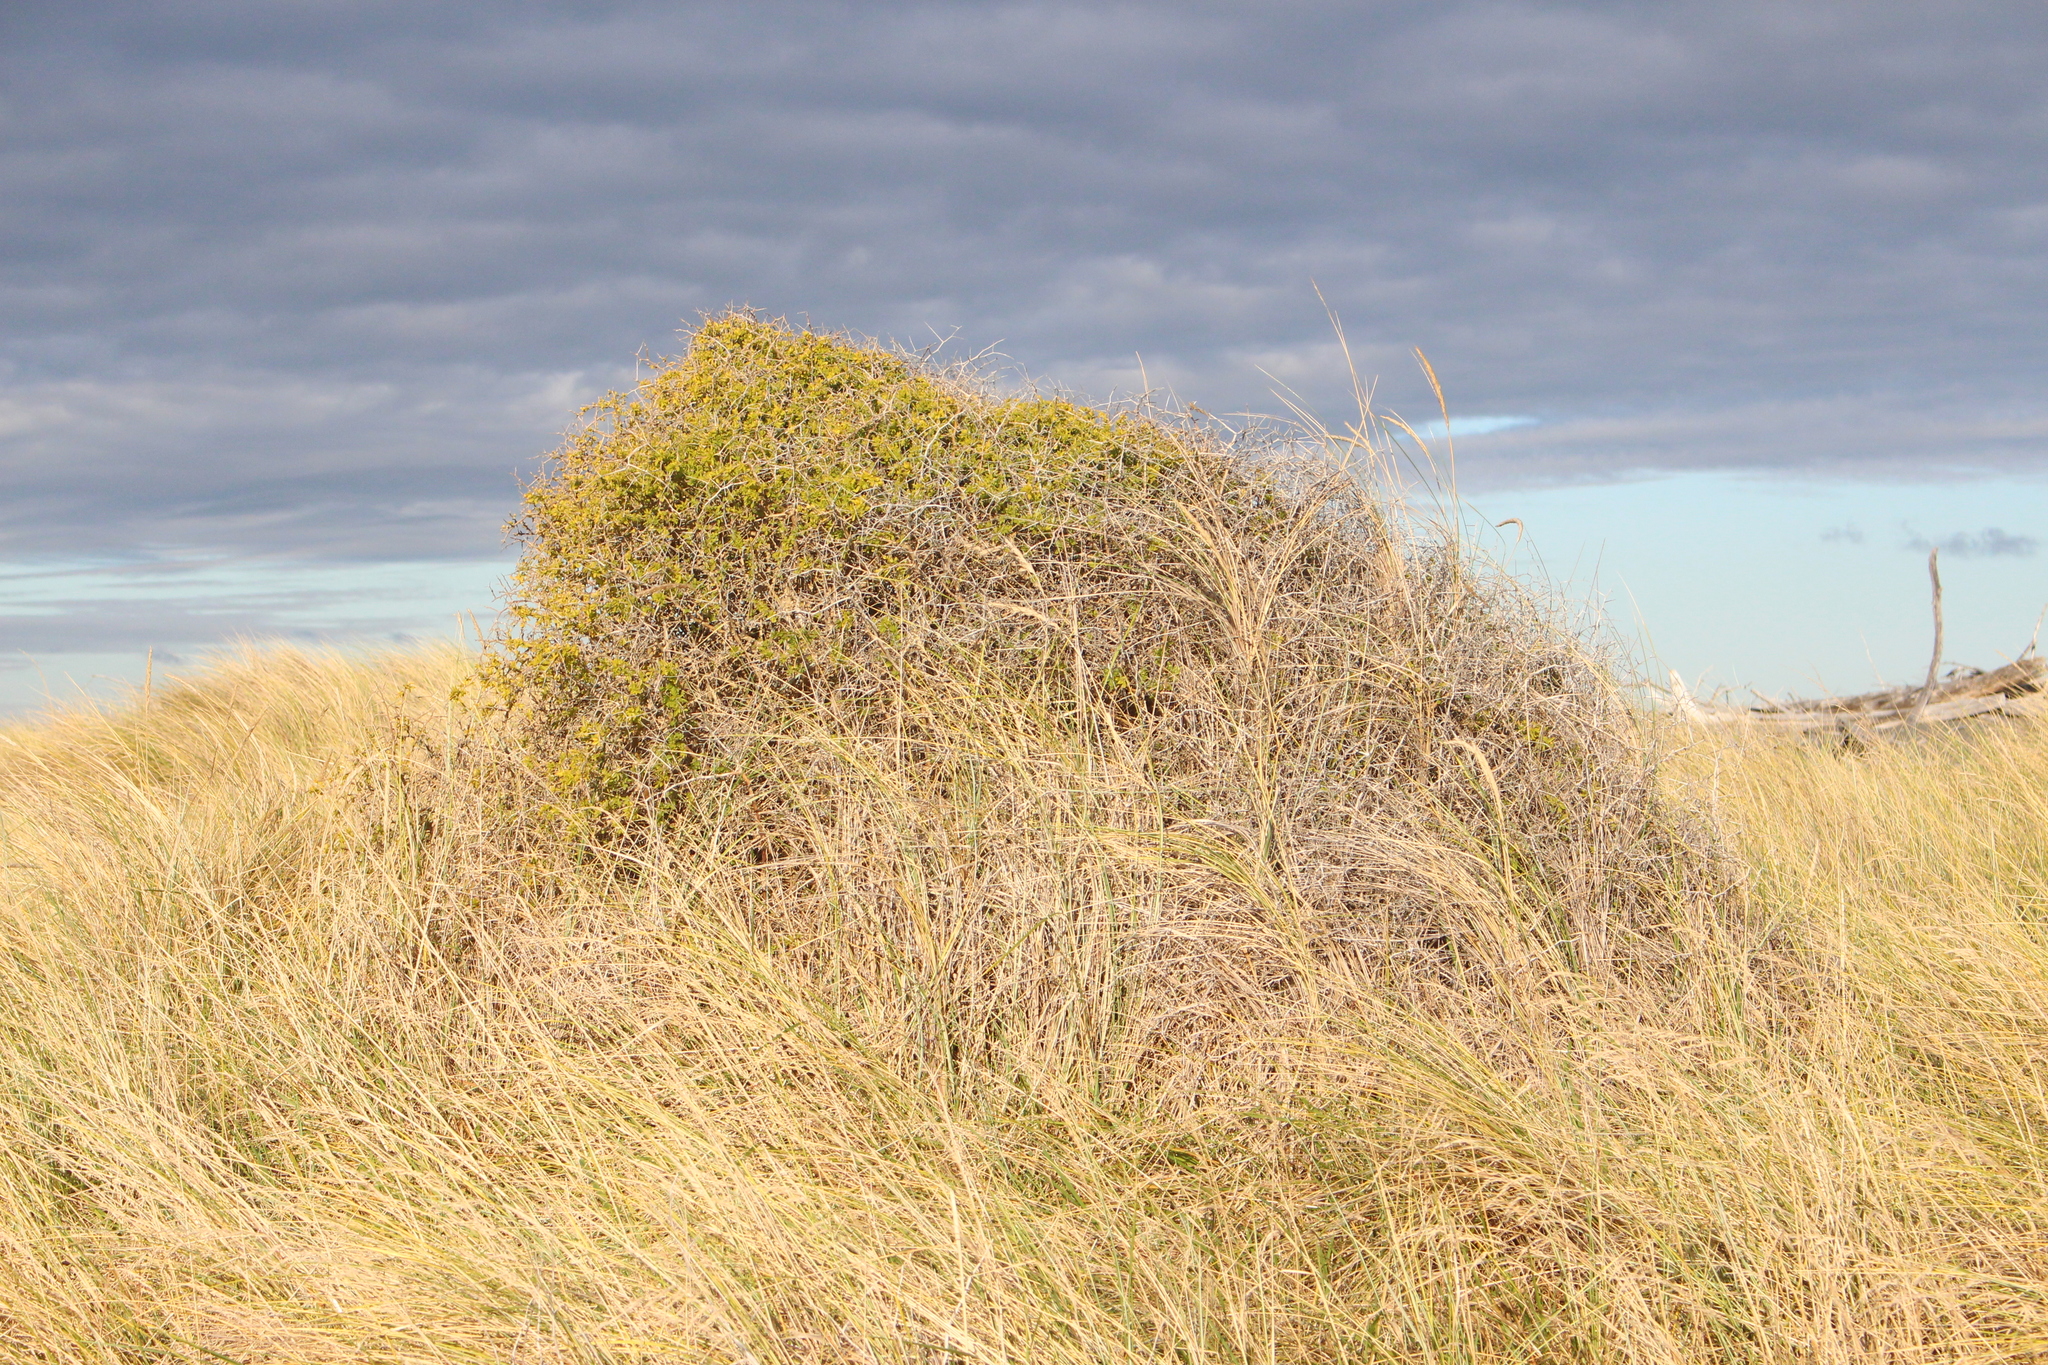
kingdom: Plantae
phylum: Tracheophyta
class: Magnoliopsida
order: Solanales
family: Solanaceae
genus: Lycium
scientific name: Lycium ferocissimum
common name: African boxthorn
